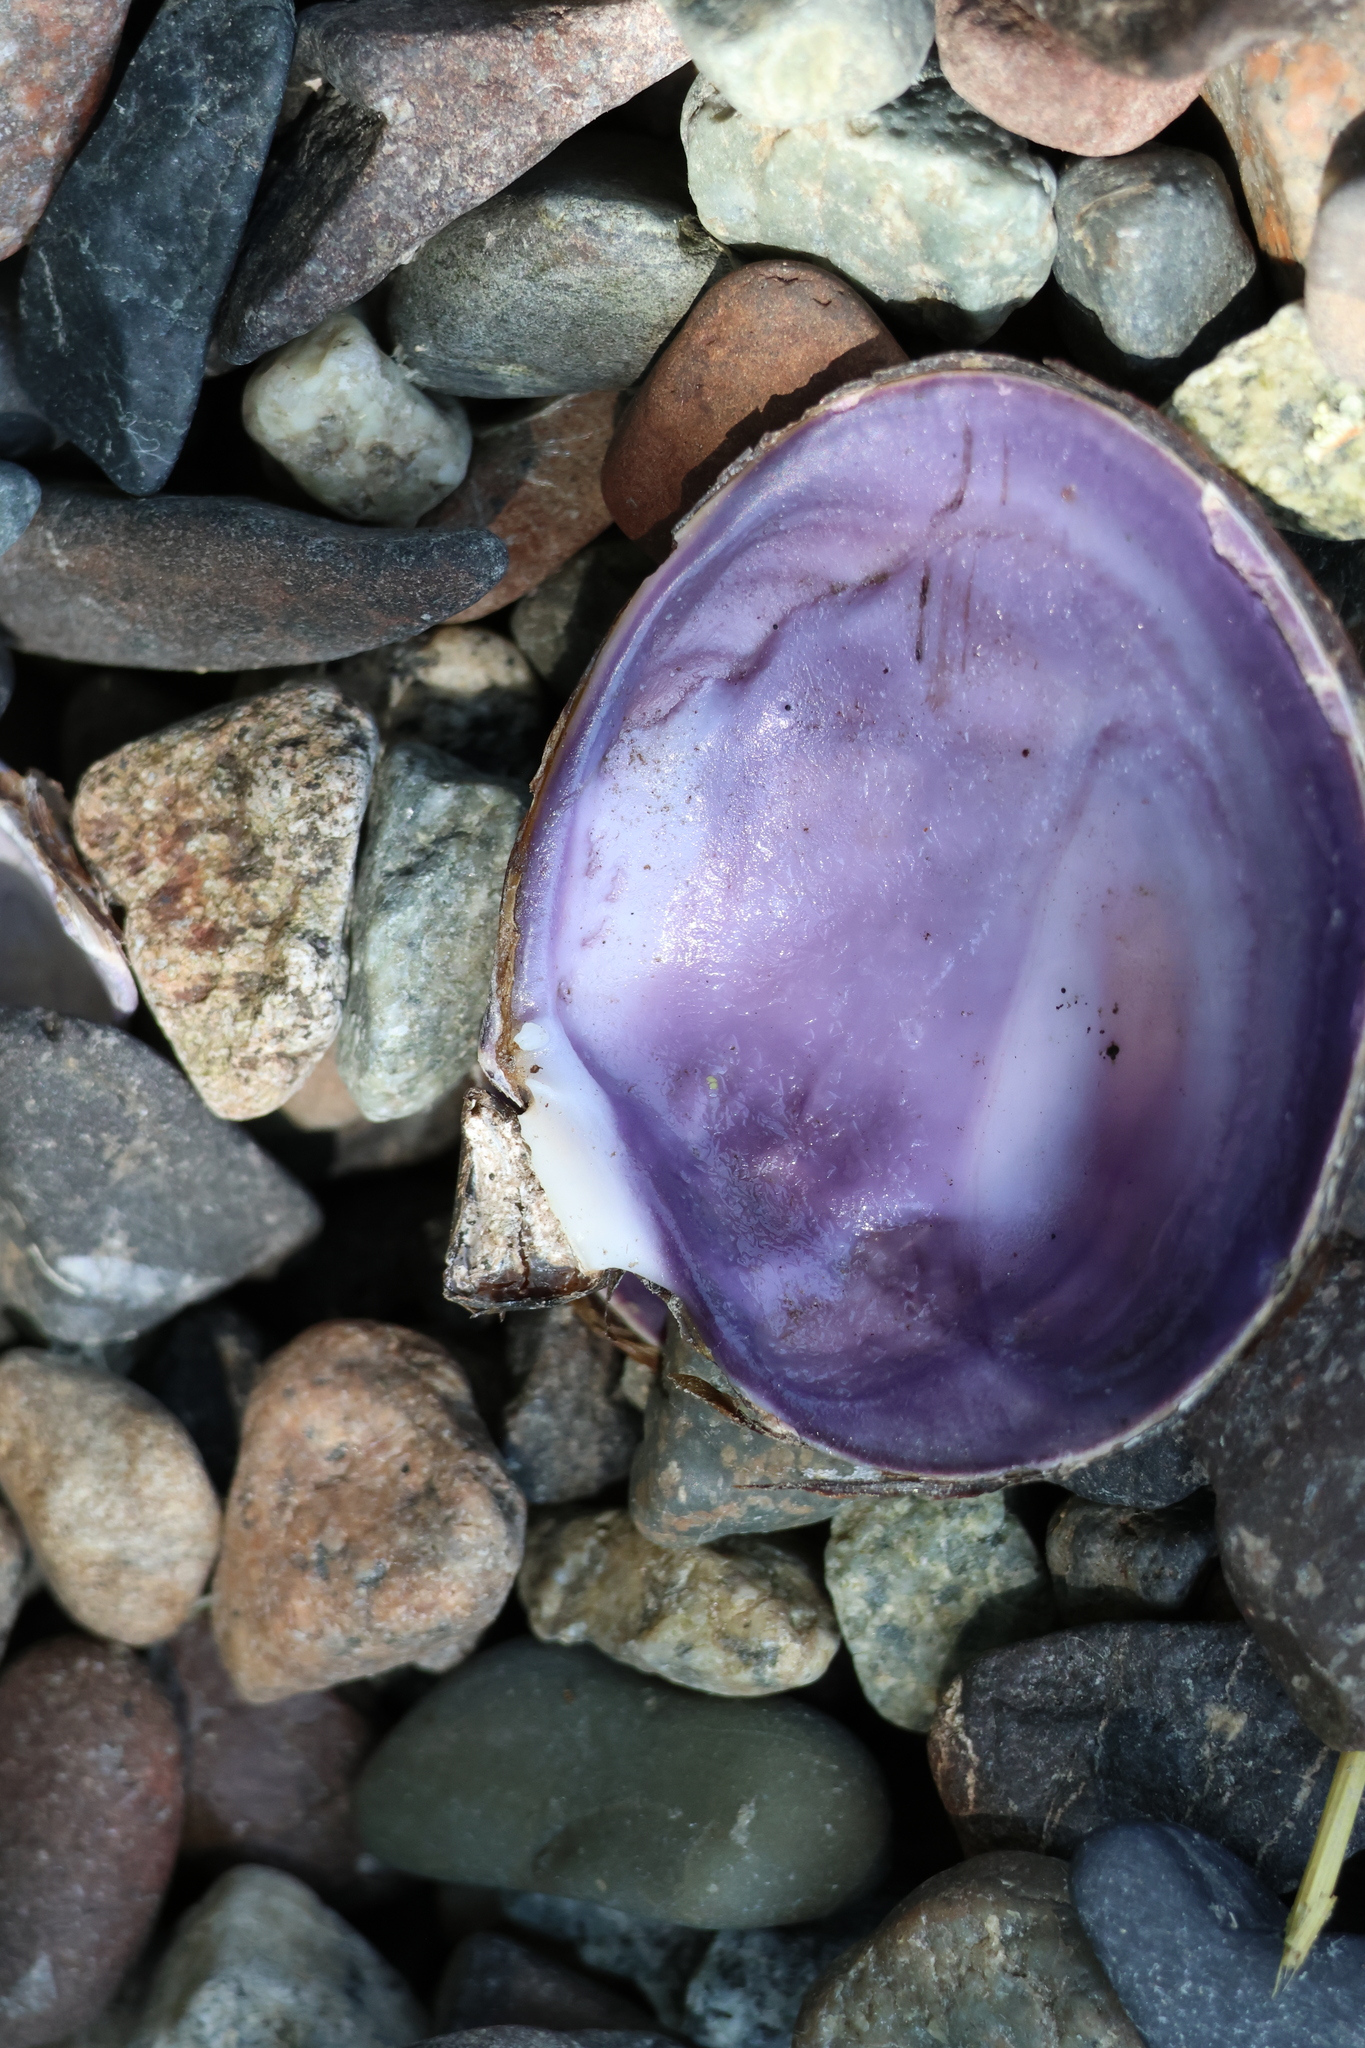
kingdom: Animalia
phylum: Mollusca
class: Bivalvia
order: Cardiida
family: Psammobiidae
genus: Nuttallia
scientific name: Nuttallia obscurata
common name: Purple mahogany-clam
